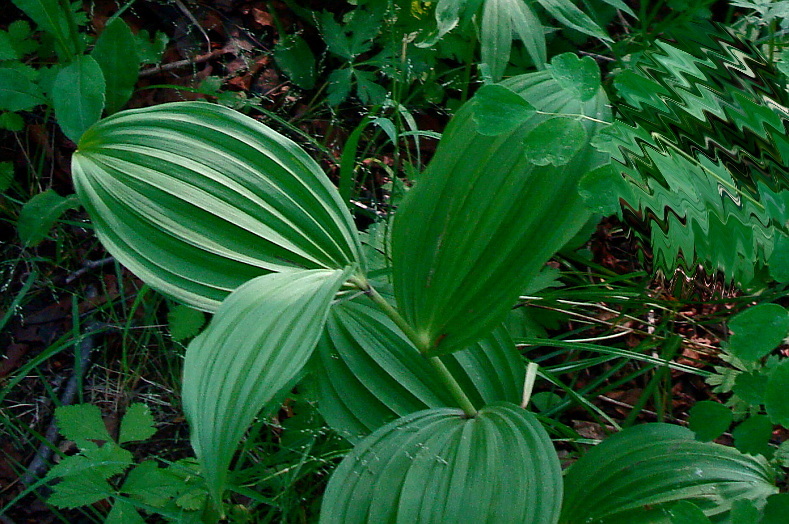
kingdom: Plantae
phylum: Tracheophyta
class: Liliopsida
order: Liliales
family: Melanthiaceae
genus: Veratrum
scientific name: Veratrum oxysepalum
